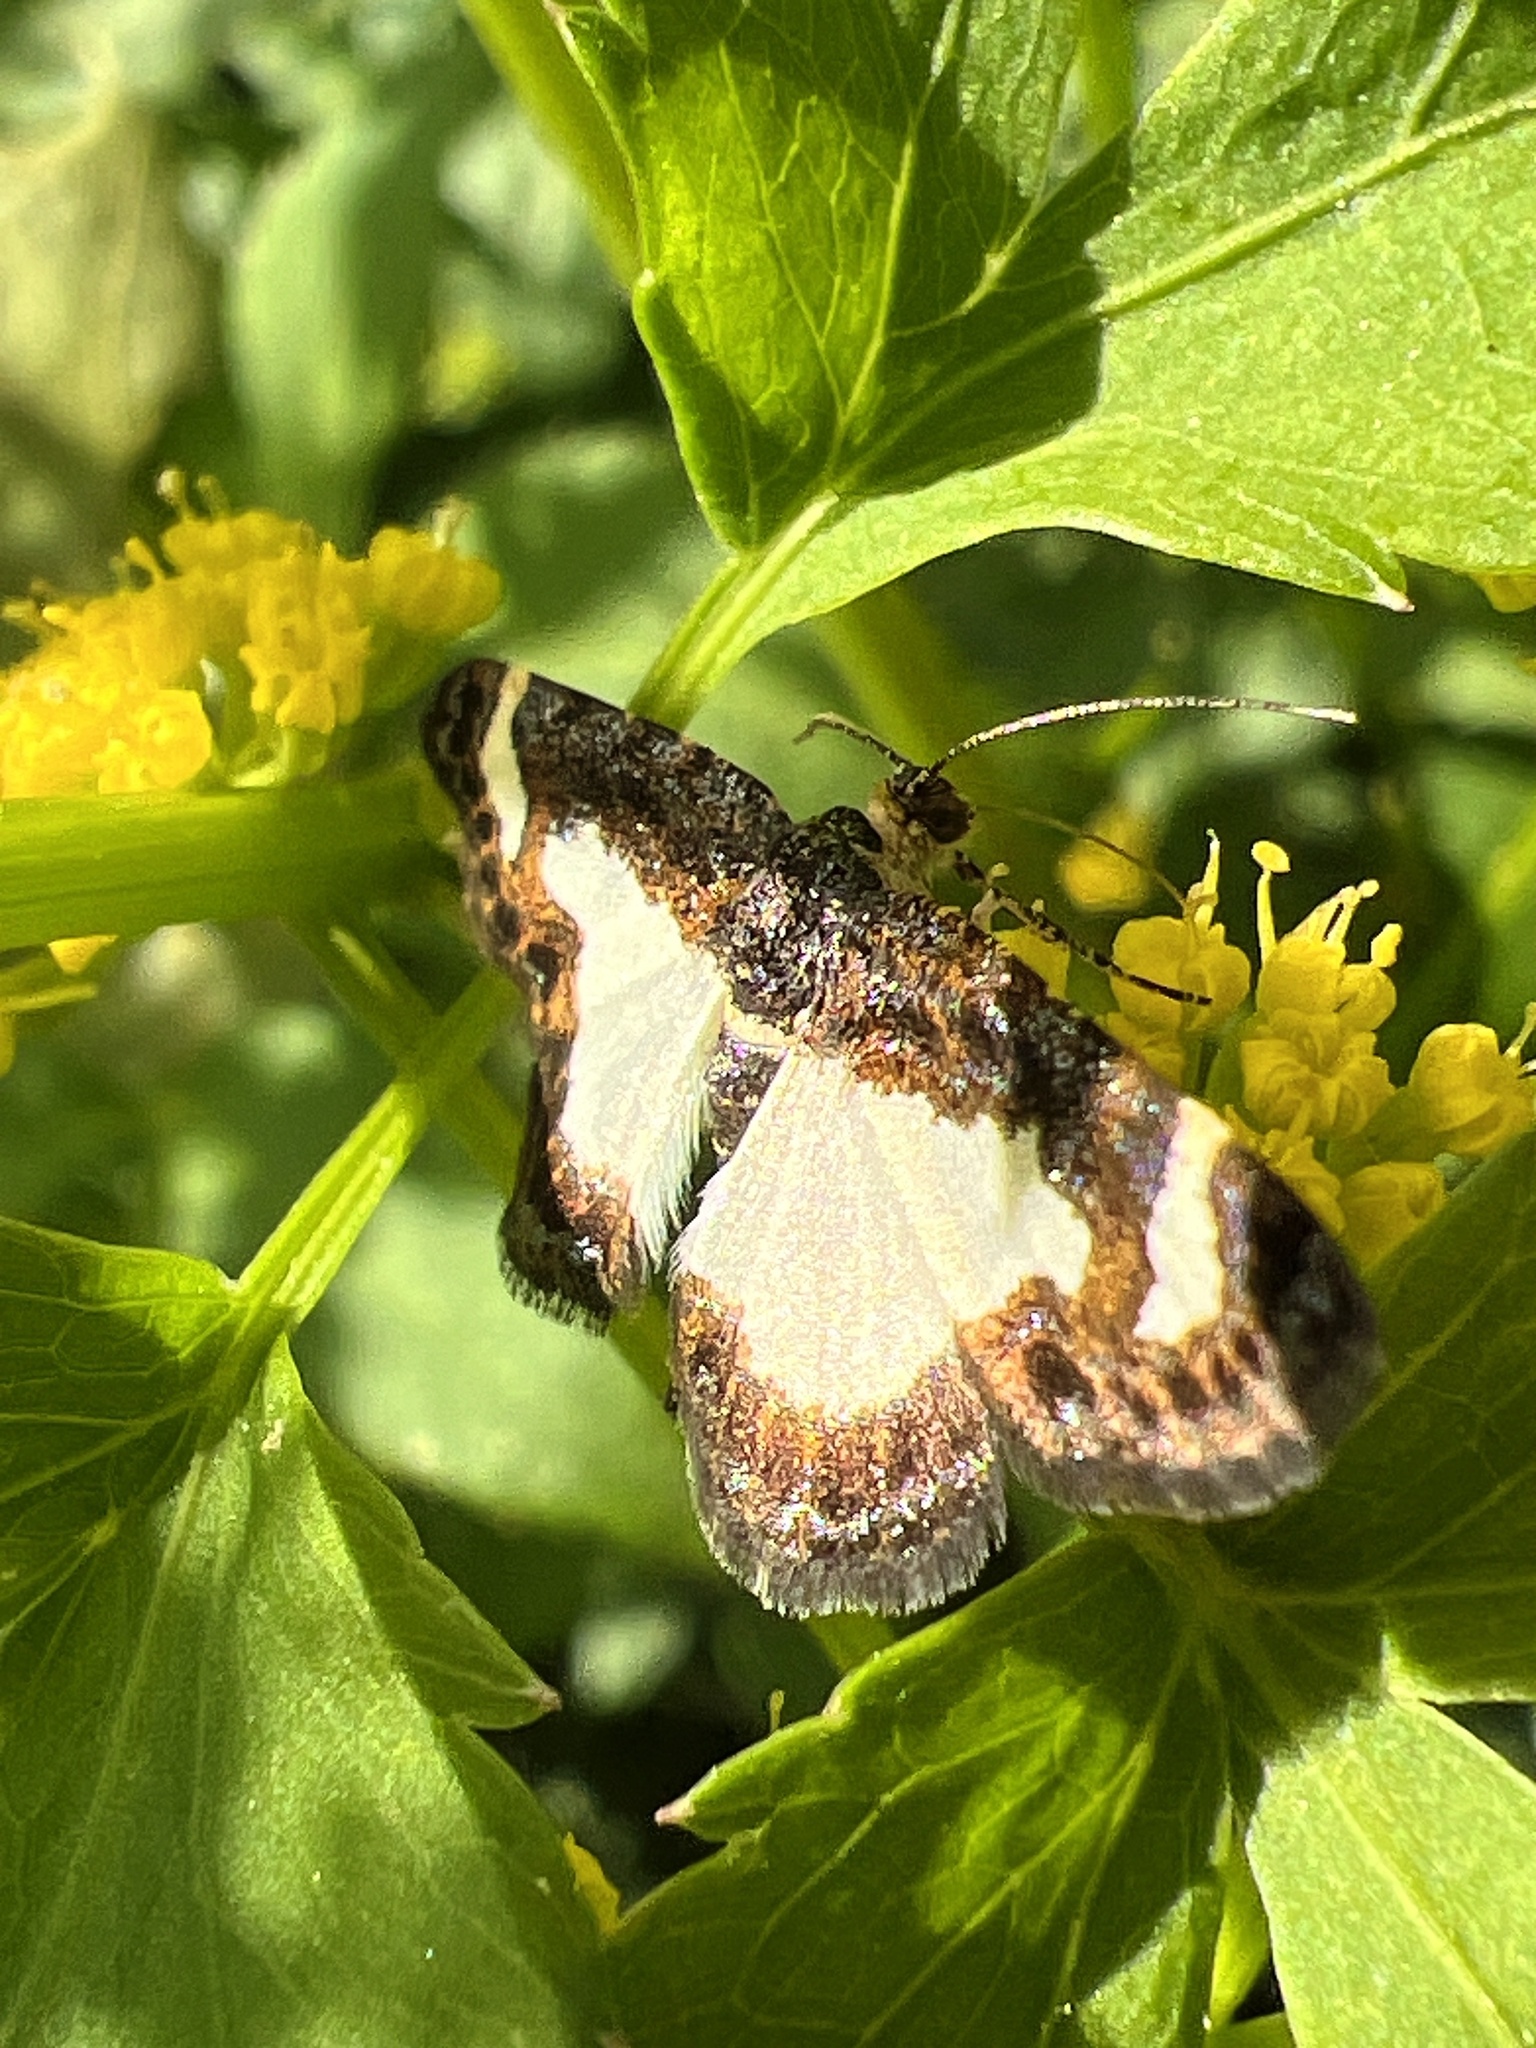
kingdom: Animalia
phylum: Arthropoda
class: Insecta
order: Lepidoptera
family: Geometridae
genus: Heliomata
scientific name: Heliomata cycladata
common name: Common spring moth
